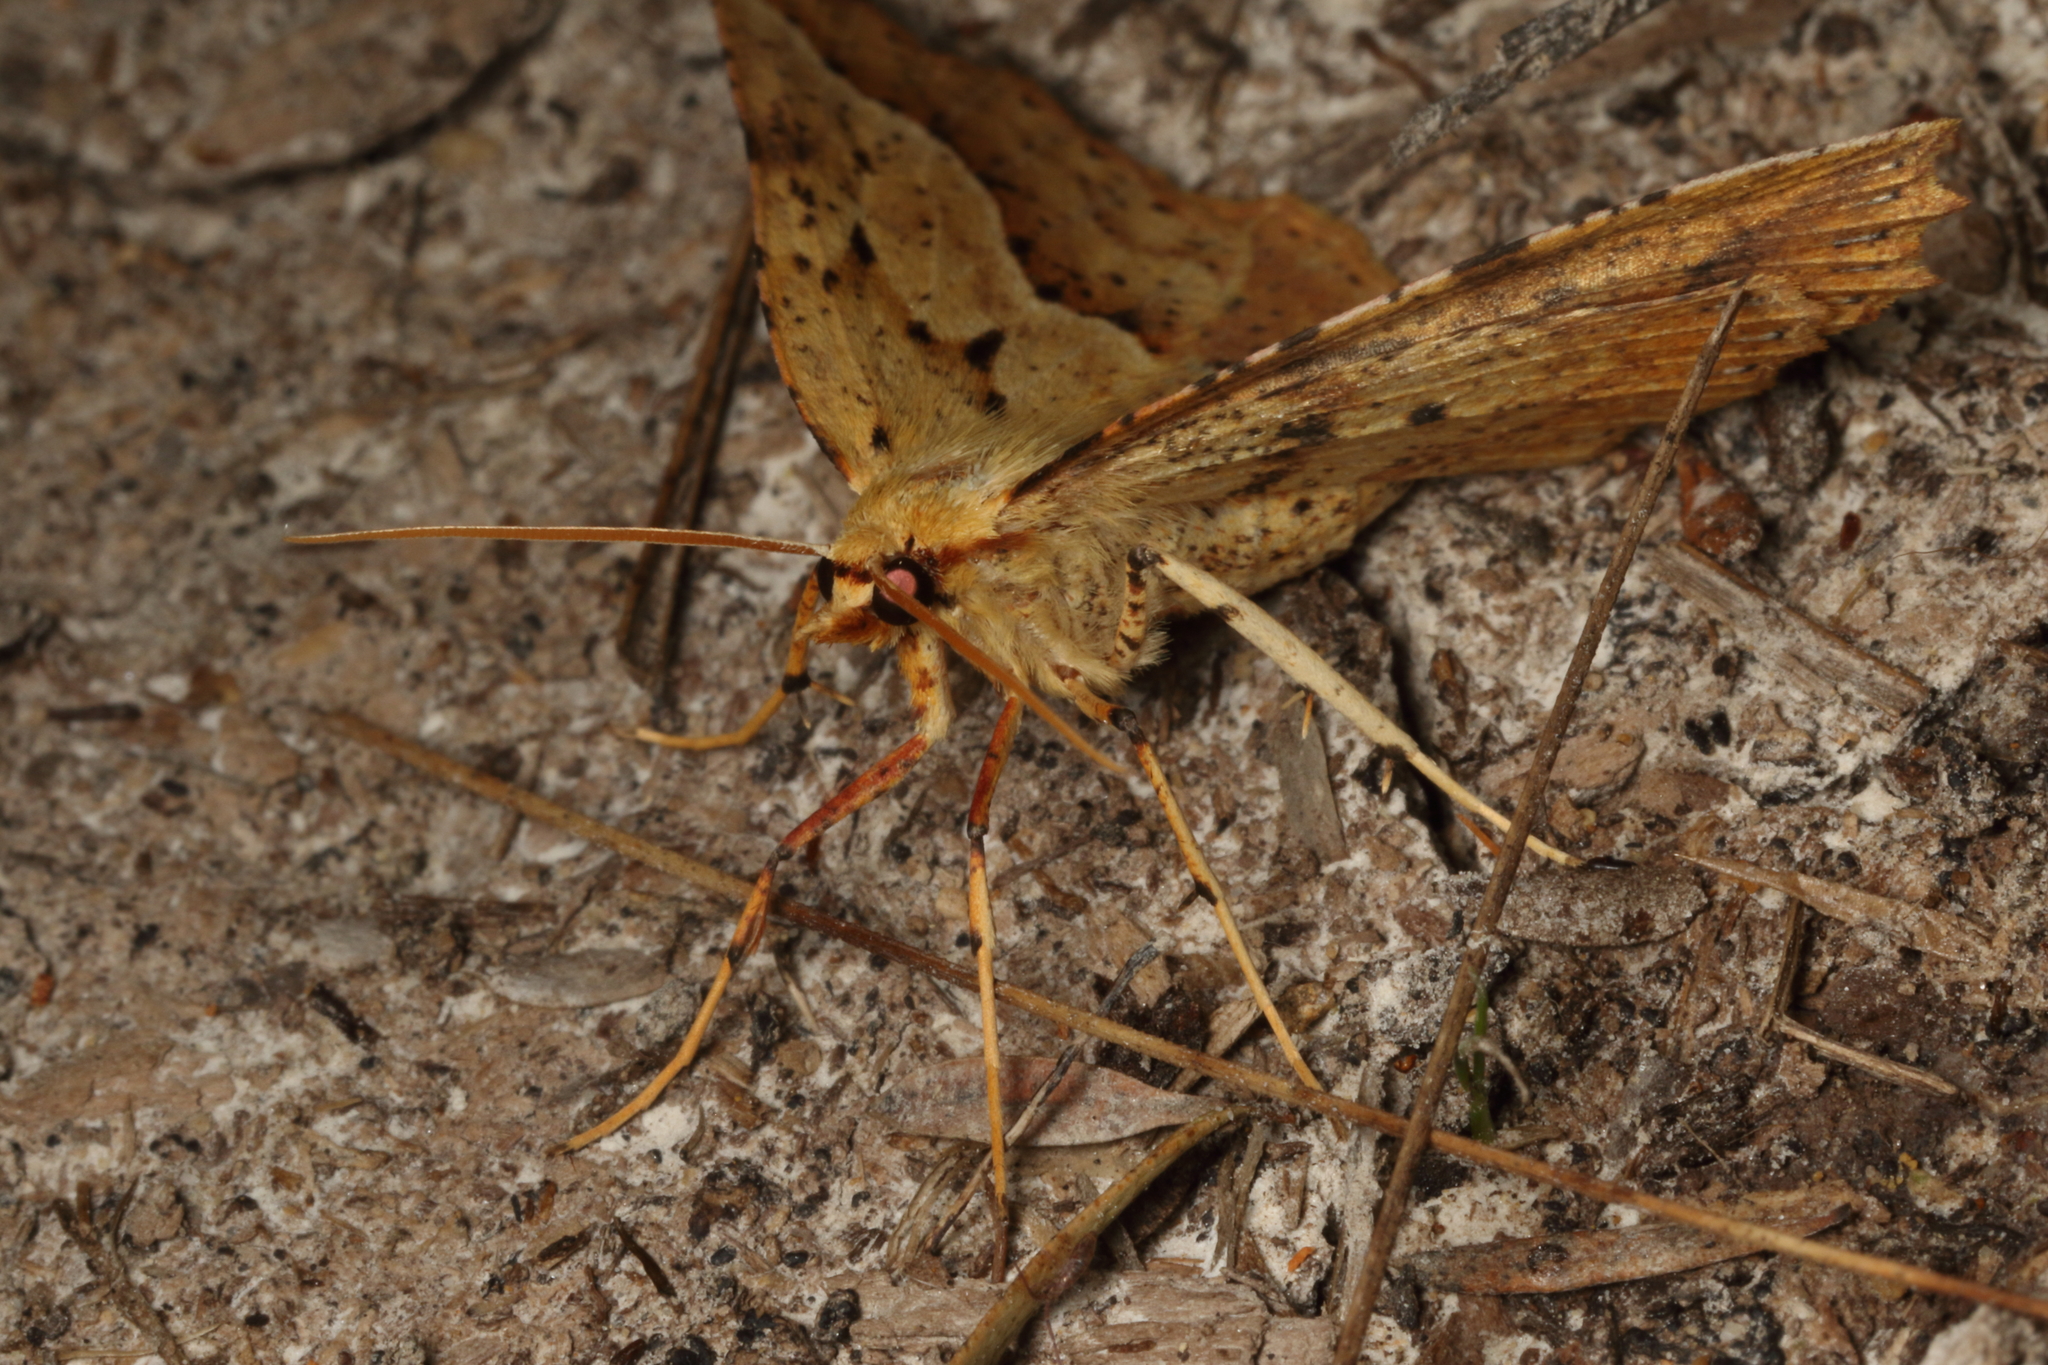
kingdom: Animalia
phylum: Arthropoda
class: Insecta
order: Lepidoptera
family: Geometridae
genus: Ischalis
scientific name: Ischalis variabilis
